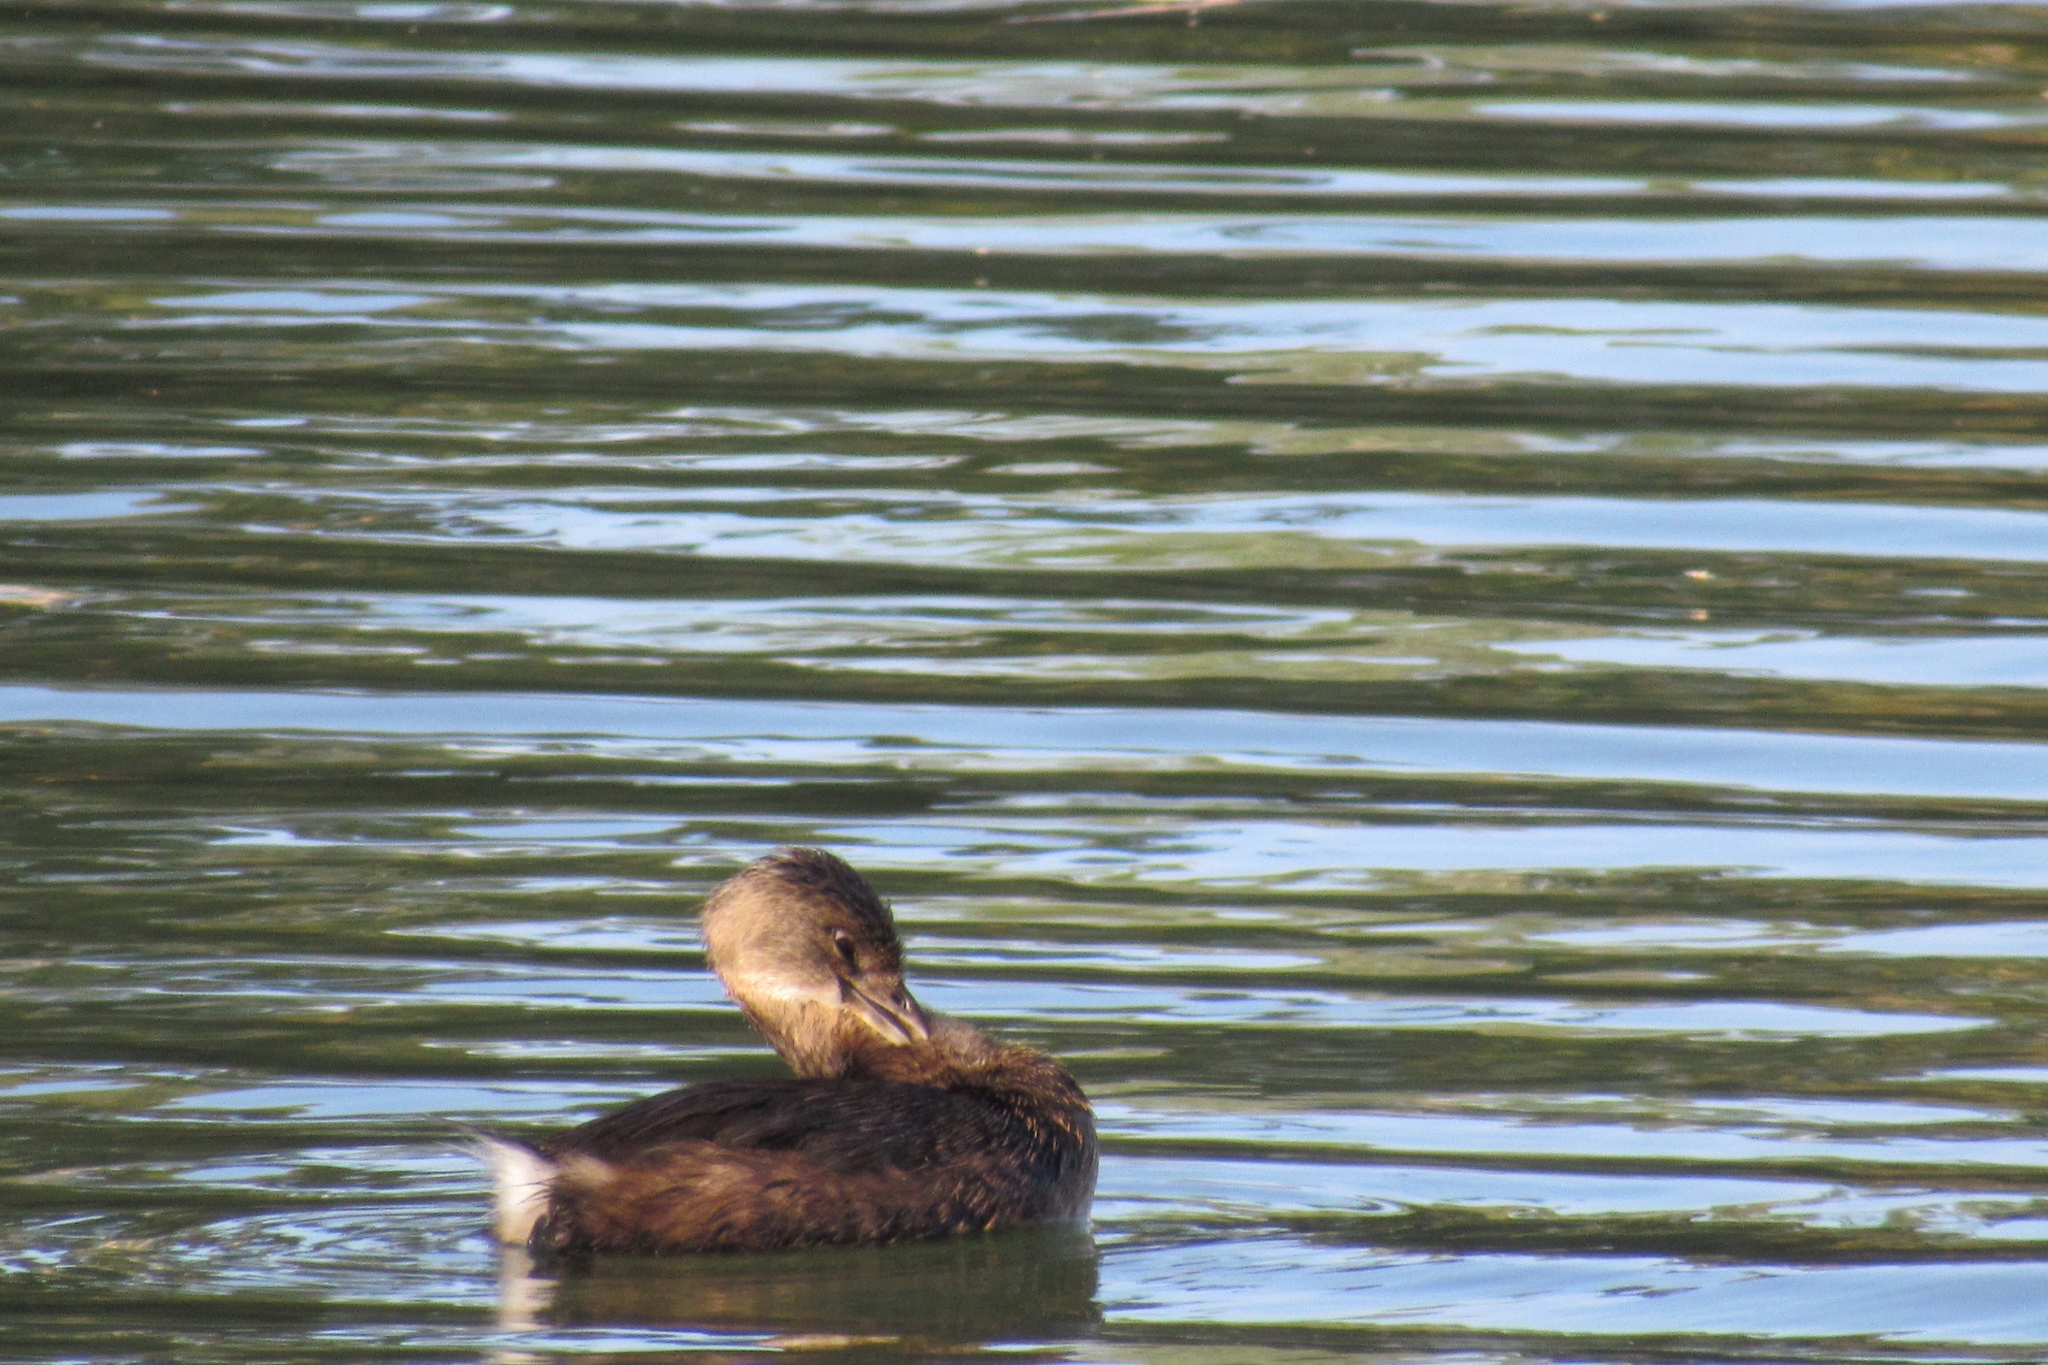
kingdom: Animalia
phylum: Chordata
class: Aves
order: Podicipediformes
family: Podicipedidae
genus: Podilymbus
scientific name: Podilymbus podiceps
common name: Pied-billed grebe
